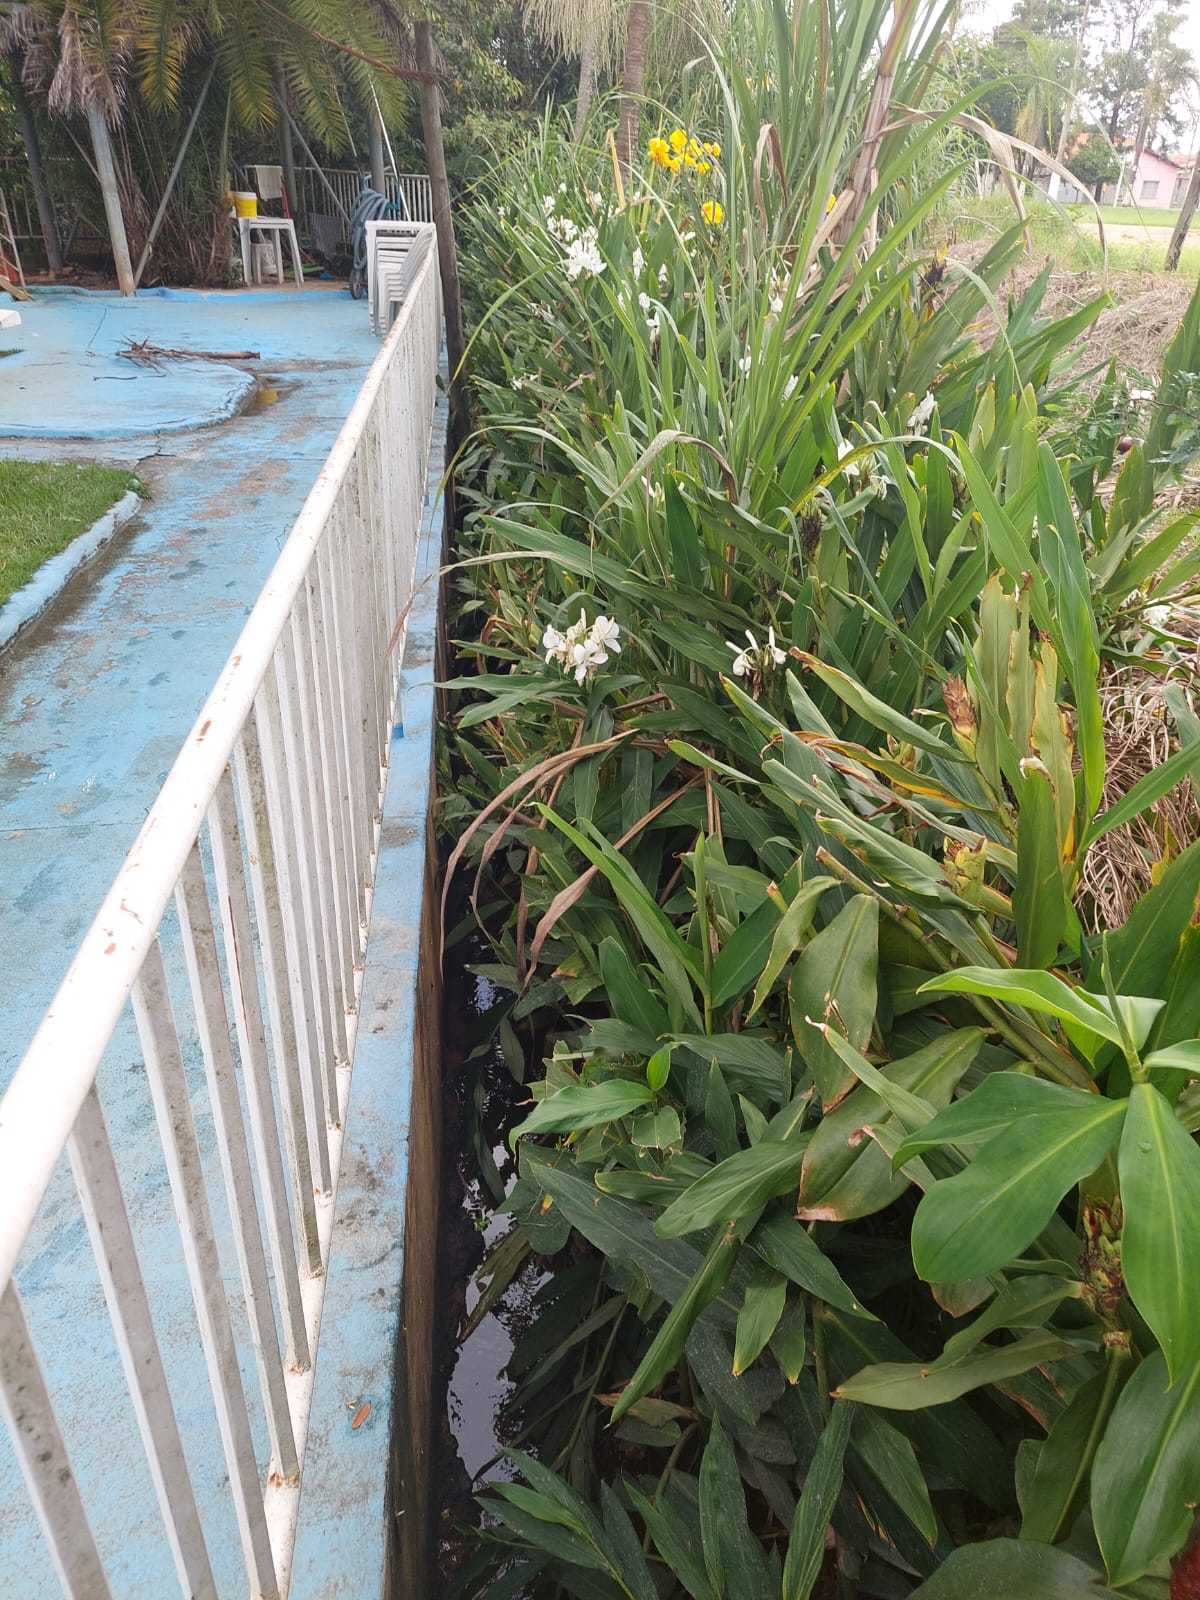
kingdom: Plantae
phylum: Tracheophyta
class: Liliopsida
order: Zingiberales
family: Zingiberaceae
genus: Hedychium
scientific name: Hedychium coronarium
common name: White garland-lily
